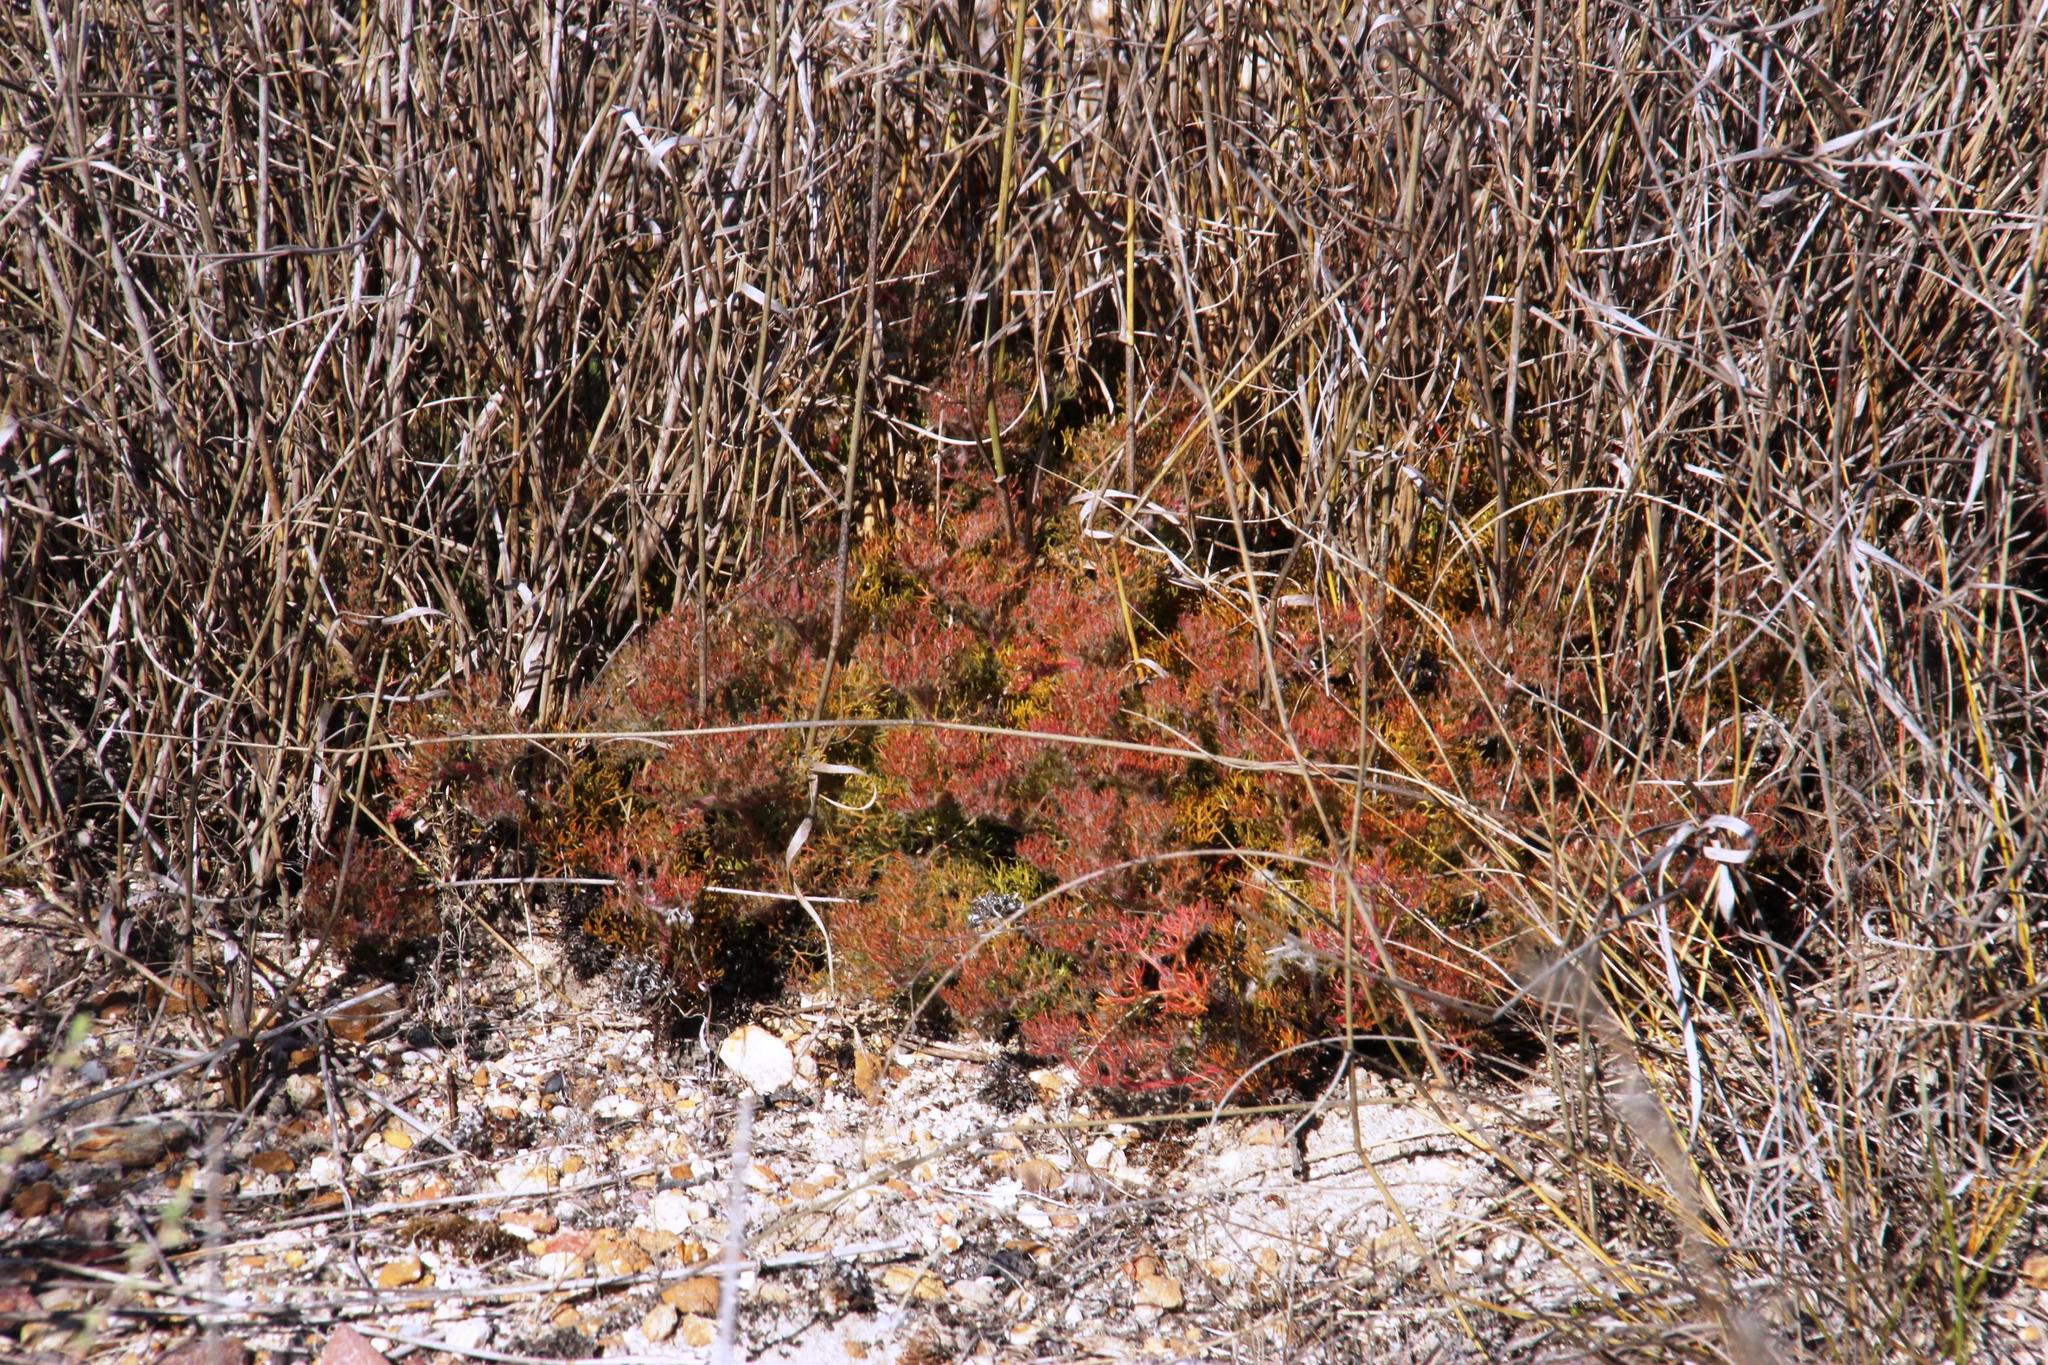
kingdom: Plantae
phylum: Tracheophyta
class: Magnoliopsida
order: Proteales
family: Proteaceae
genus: Serruria
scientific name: Serruria incrassata
